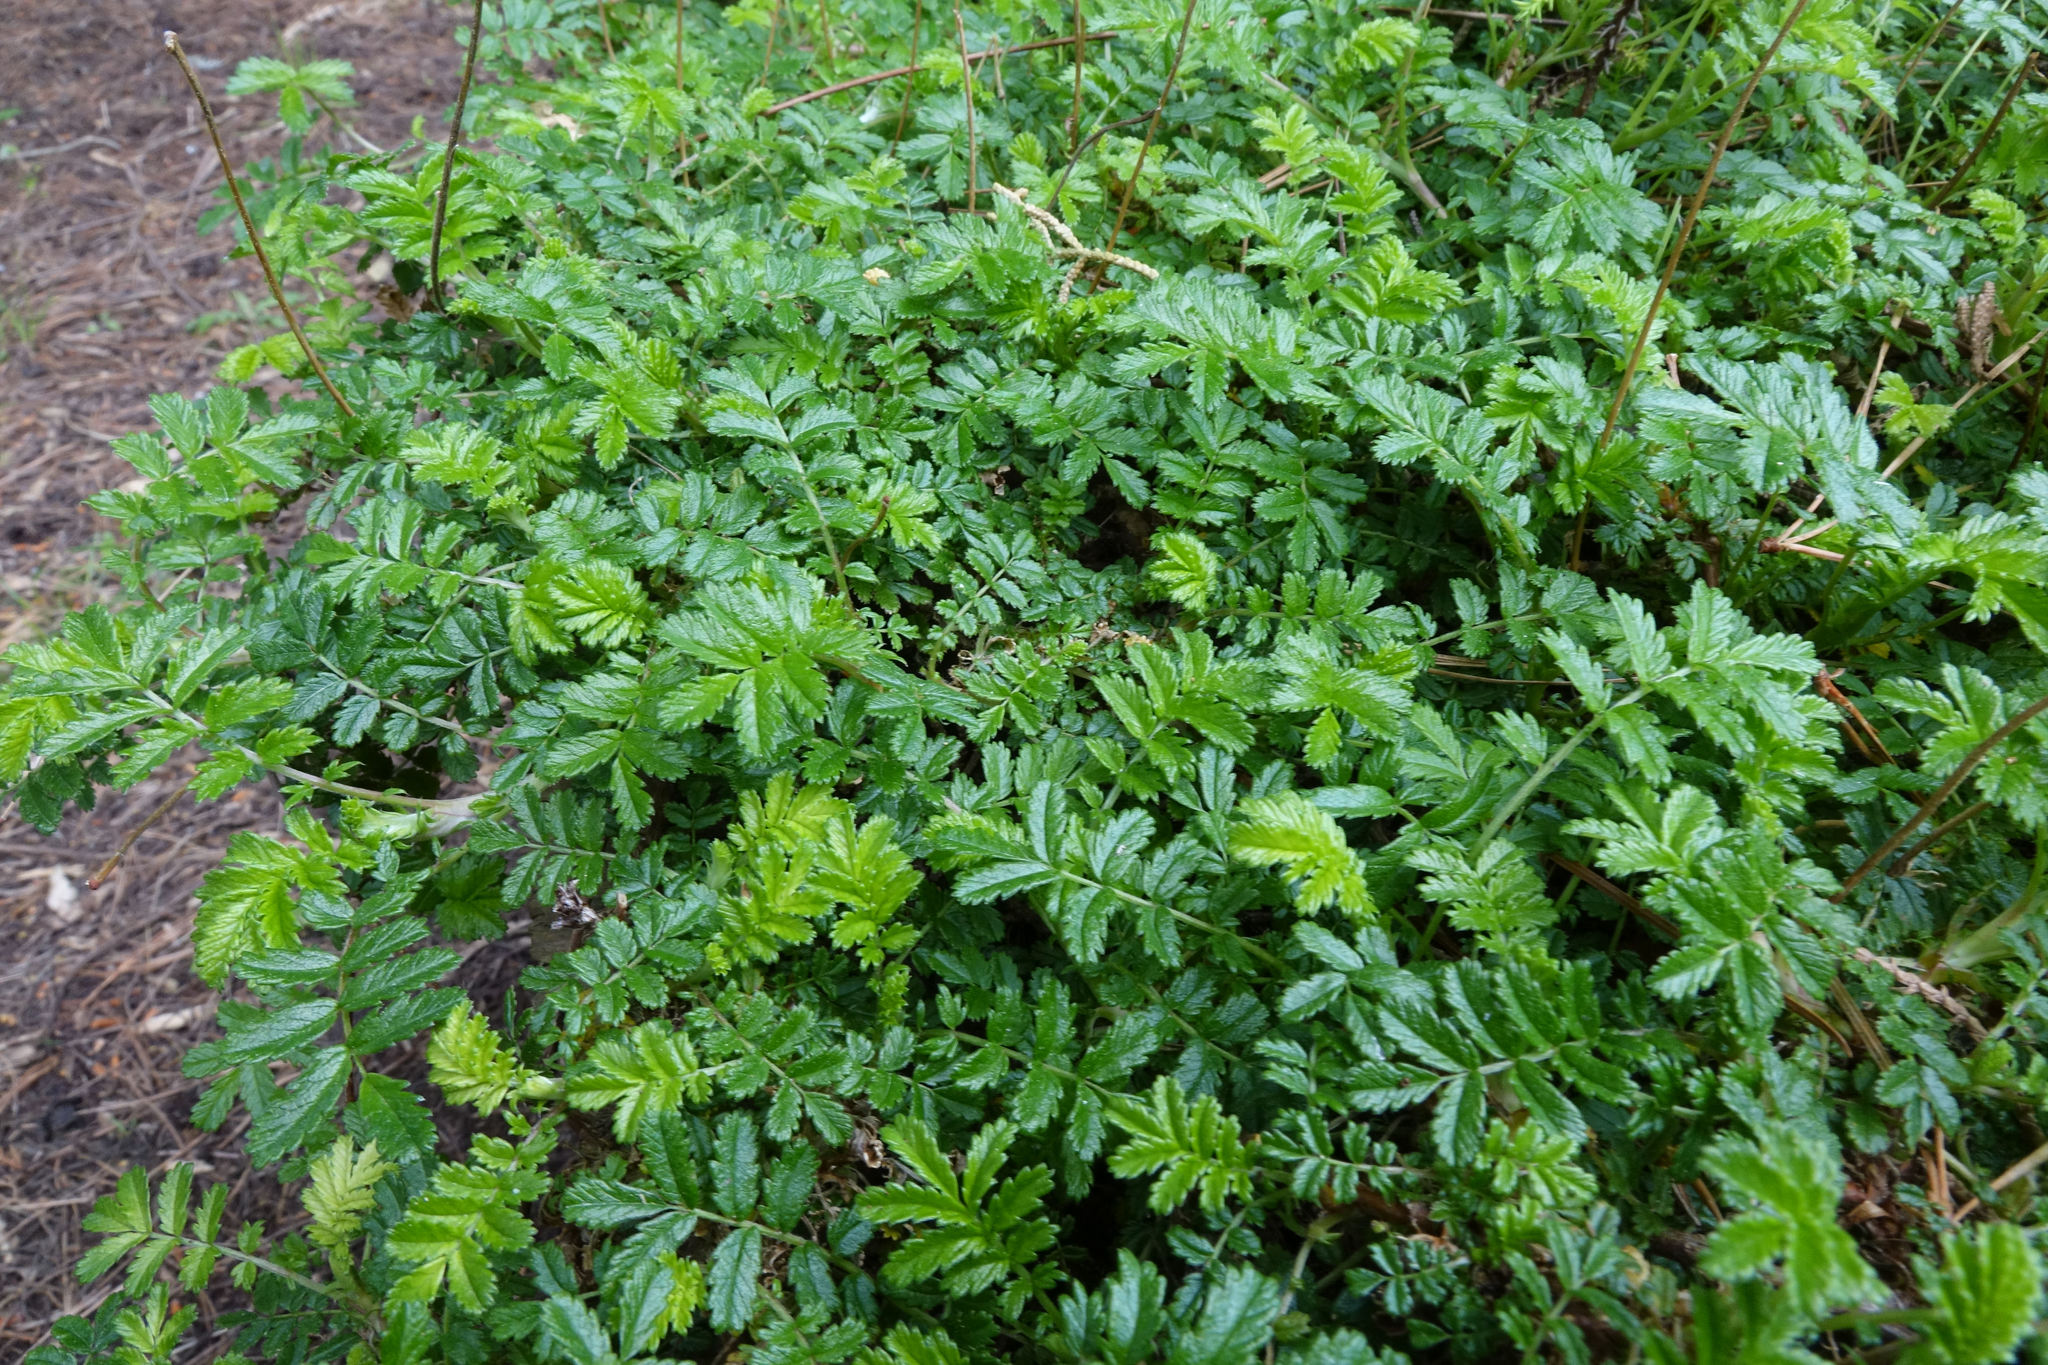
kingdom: Plantae
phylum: Tracheophyta
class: Magnoliopsida
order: Rosales
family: Rosaceae
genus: Acaena
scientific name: Acaena novae-zelandiae
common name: Pirri-pirri-bur
